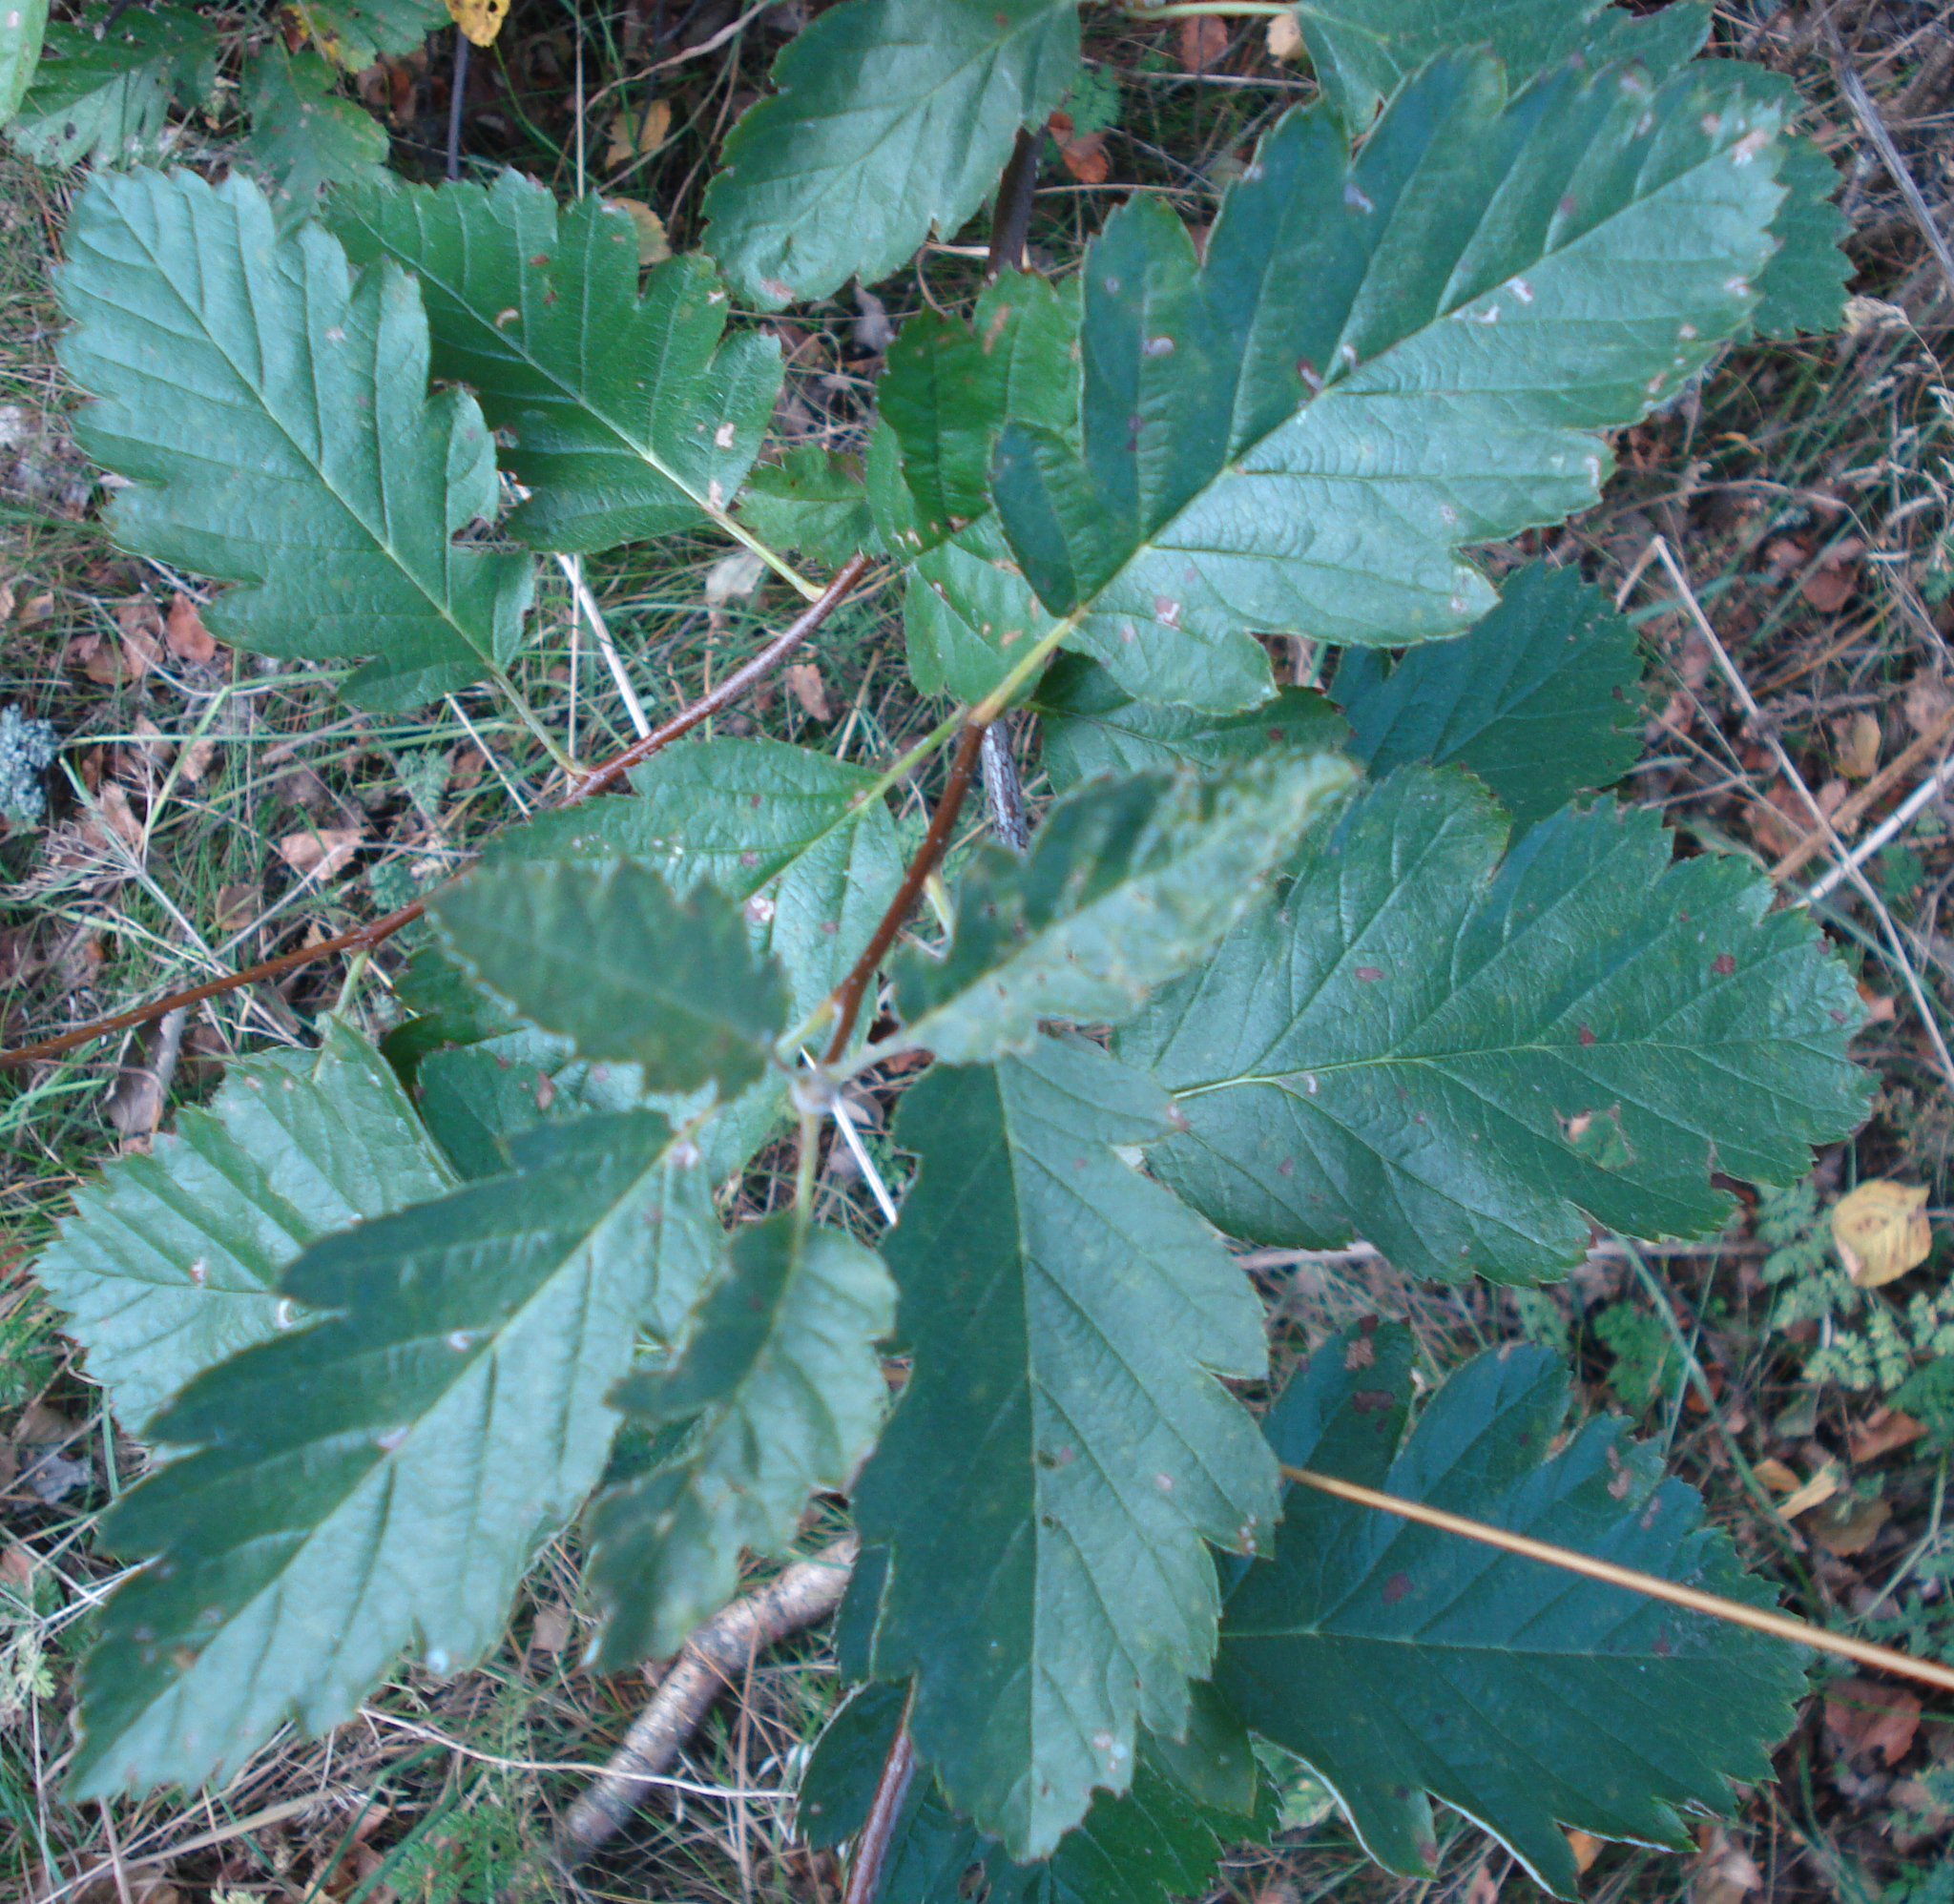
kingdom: Plantae
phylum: Tracheophyta
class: Magnoliopsida
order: Rosales
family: Rosaceae
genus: Scandosorbus
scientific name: Scandosorbus intermedia
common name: Swedish whitebeam
